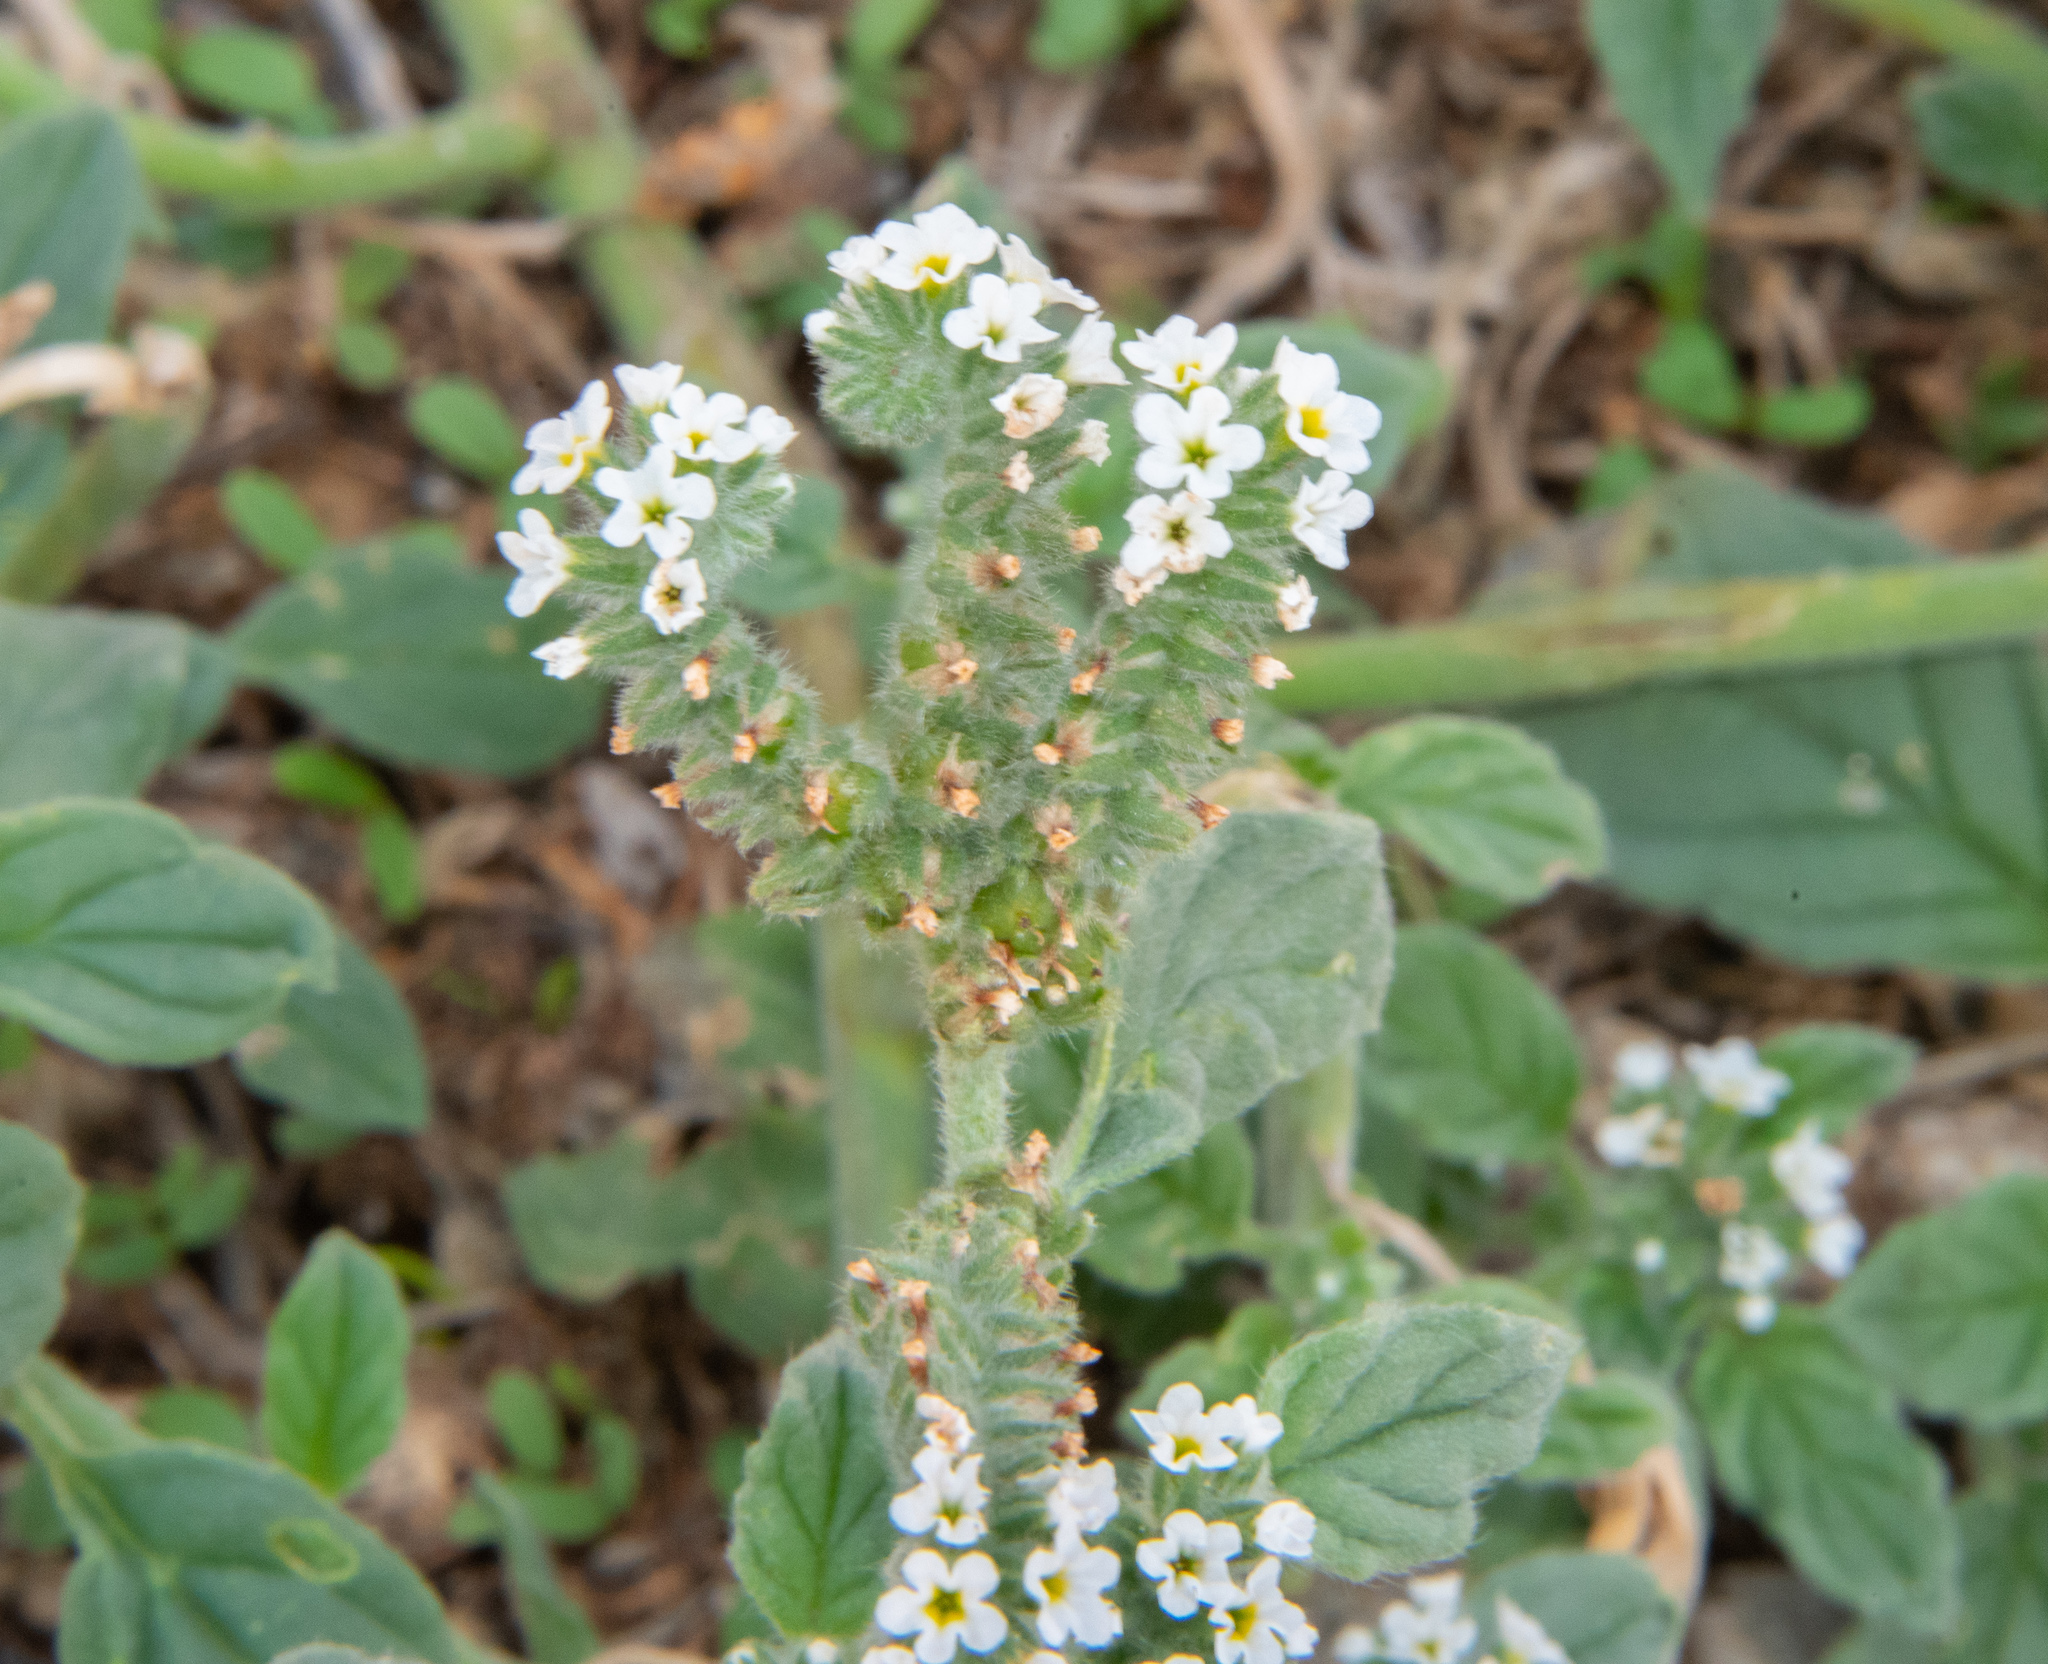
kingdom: Plantae
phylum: Tracheophyta
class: Magnoliopsida
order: Boraginales
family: Heliotropiaceae
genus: Heliotropium
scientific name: Heliotropium europaeum
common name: European heliotrope
